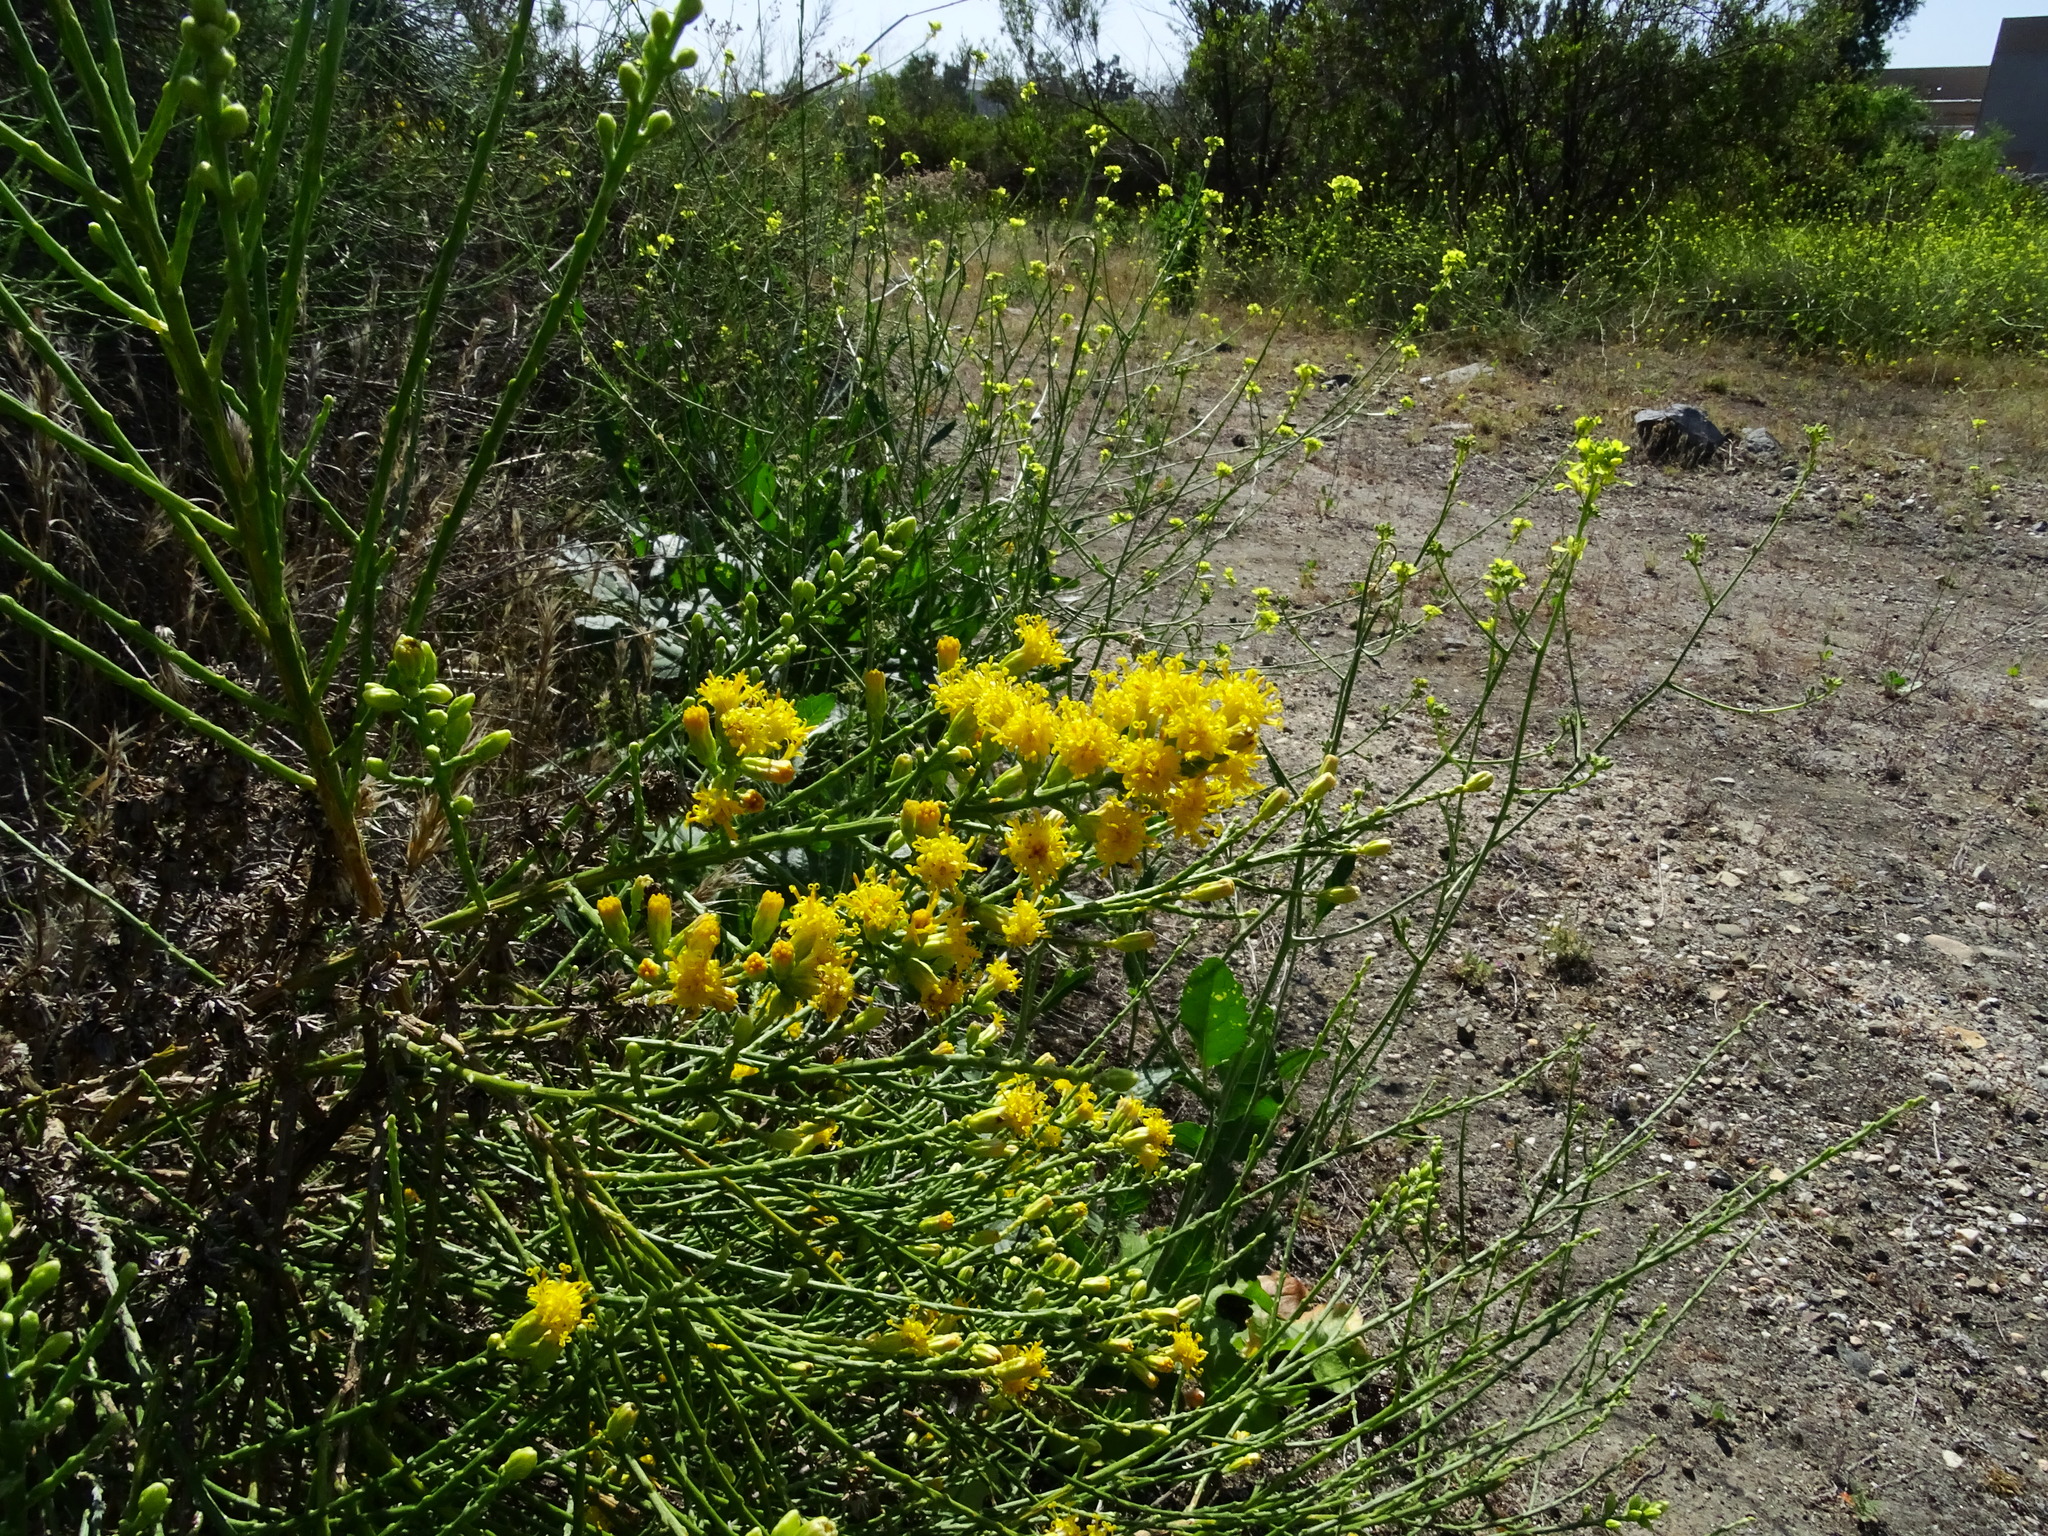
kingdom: Plantae
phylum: Tracheophyta
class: Magnoliopsida
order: Asterales
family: Asteraceae
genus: Lepidospartum
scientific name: Lepidospartum squamatum
